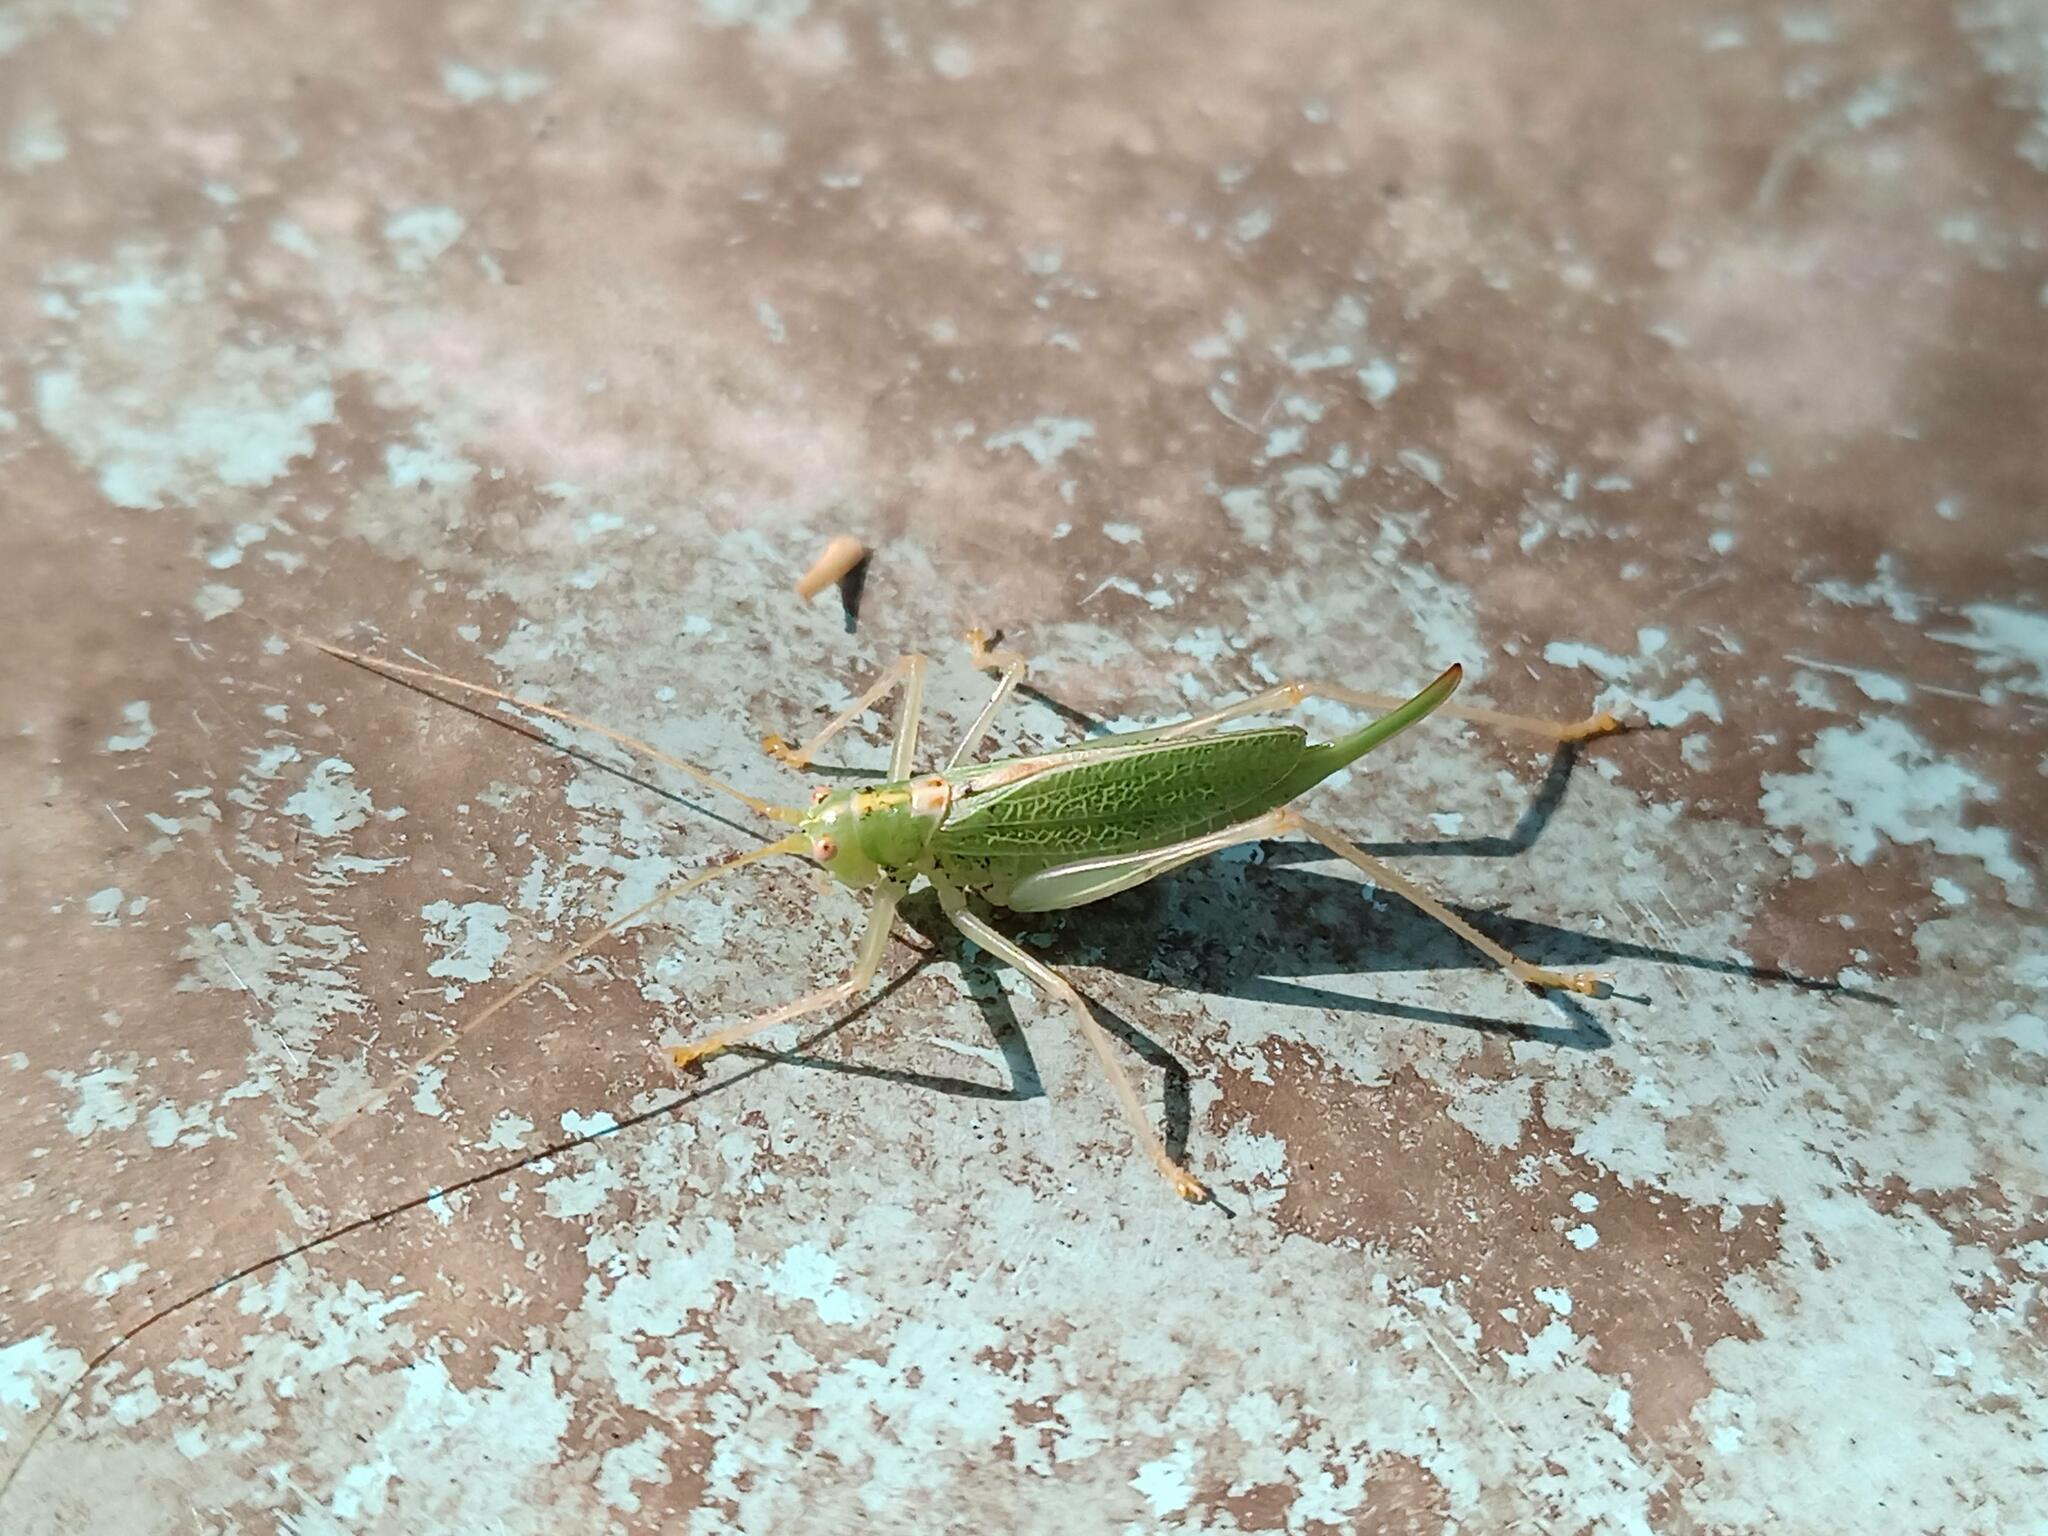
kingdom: Animalia
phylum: Arthropoda
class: Insecta
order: Orthoptera
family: Tettigoniidae
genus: Meconema
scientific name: Meconema thalassinum
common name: Oak bush-cricket
